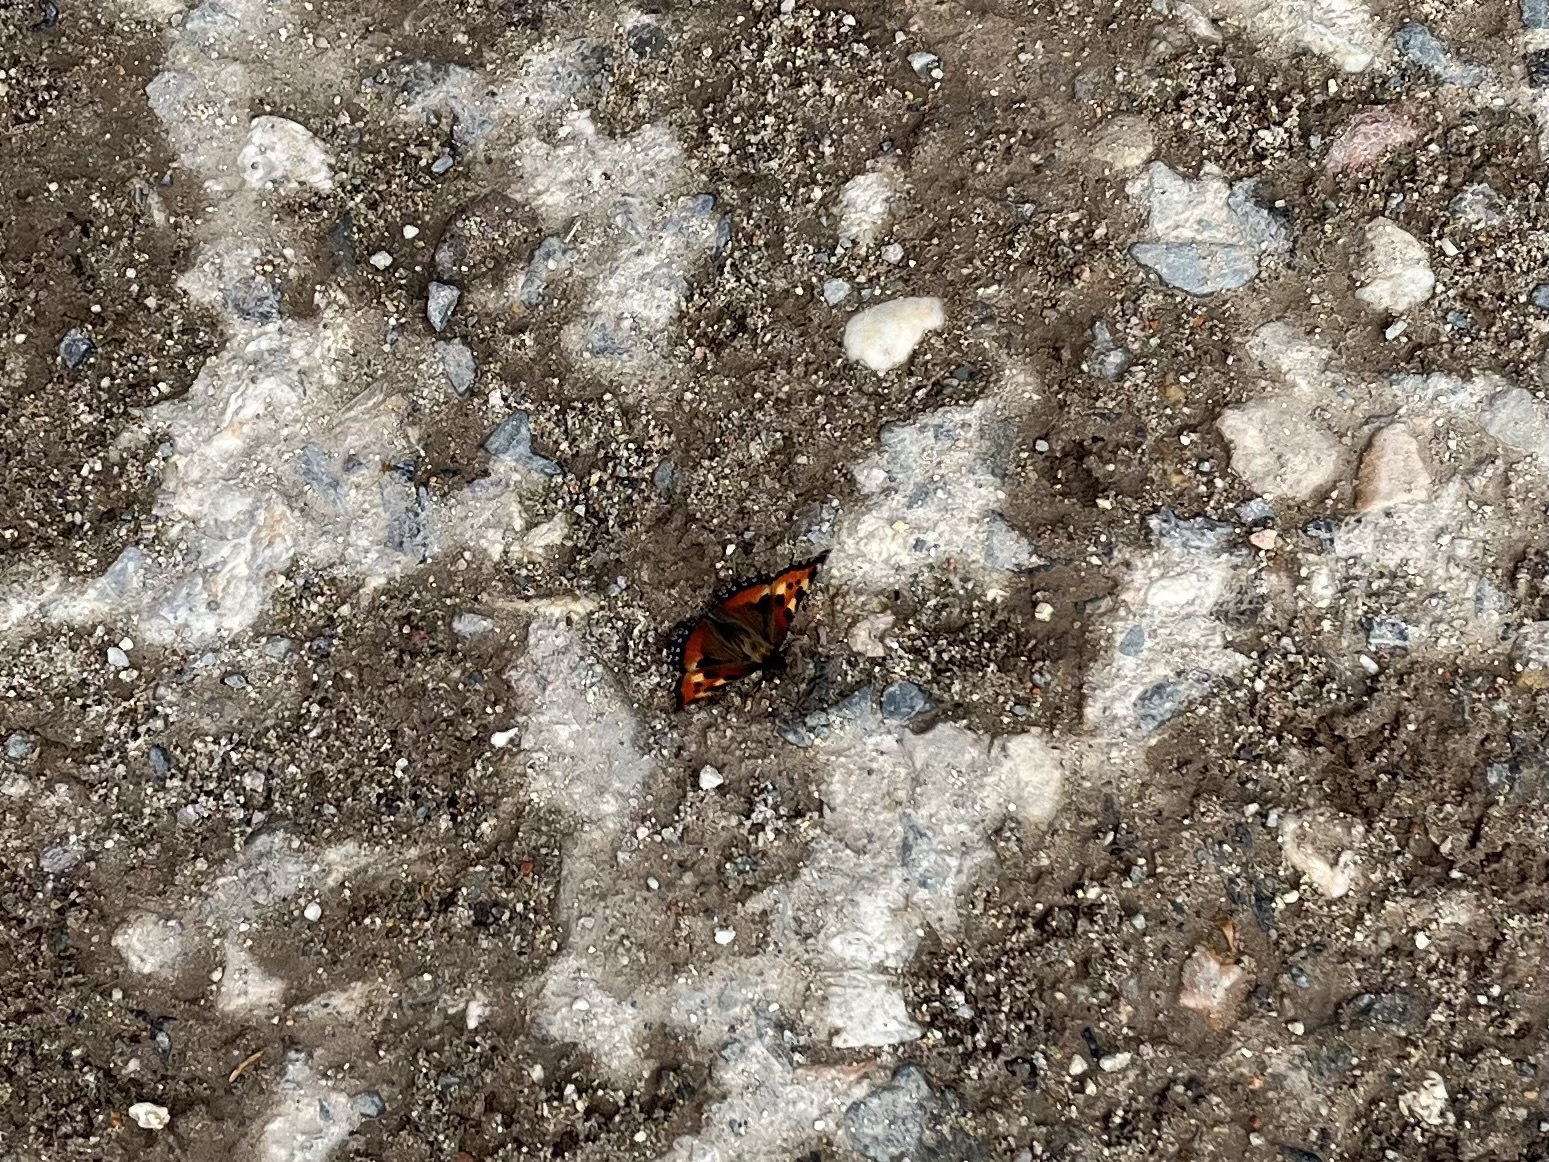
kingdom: Animalia
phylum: Arthropoda
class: Insecta
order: Lepidoptera
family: Nymphalidae
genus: Aglais
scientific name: Aglais urticae
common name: Small tortoiseshell
